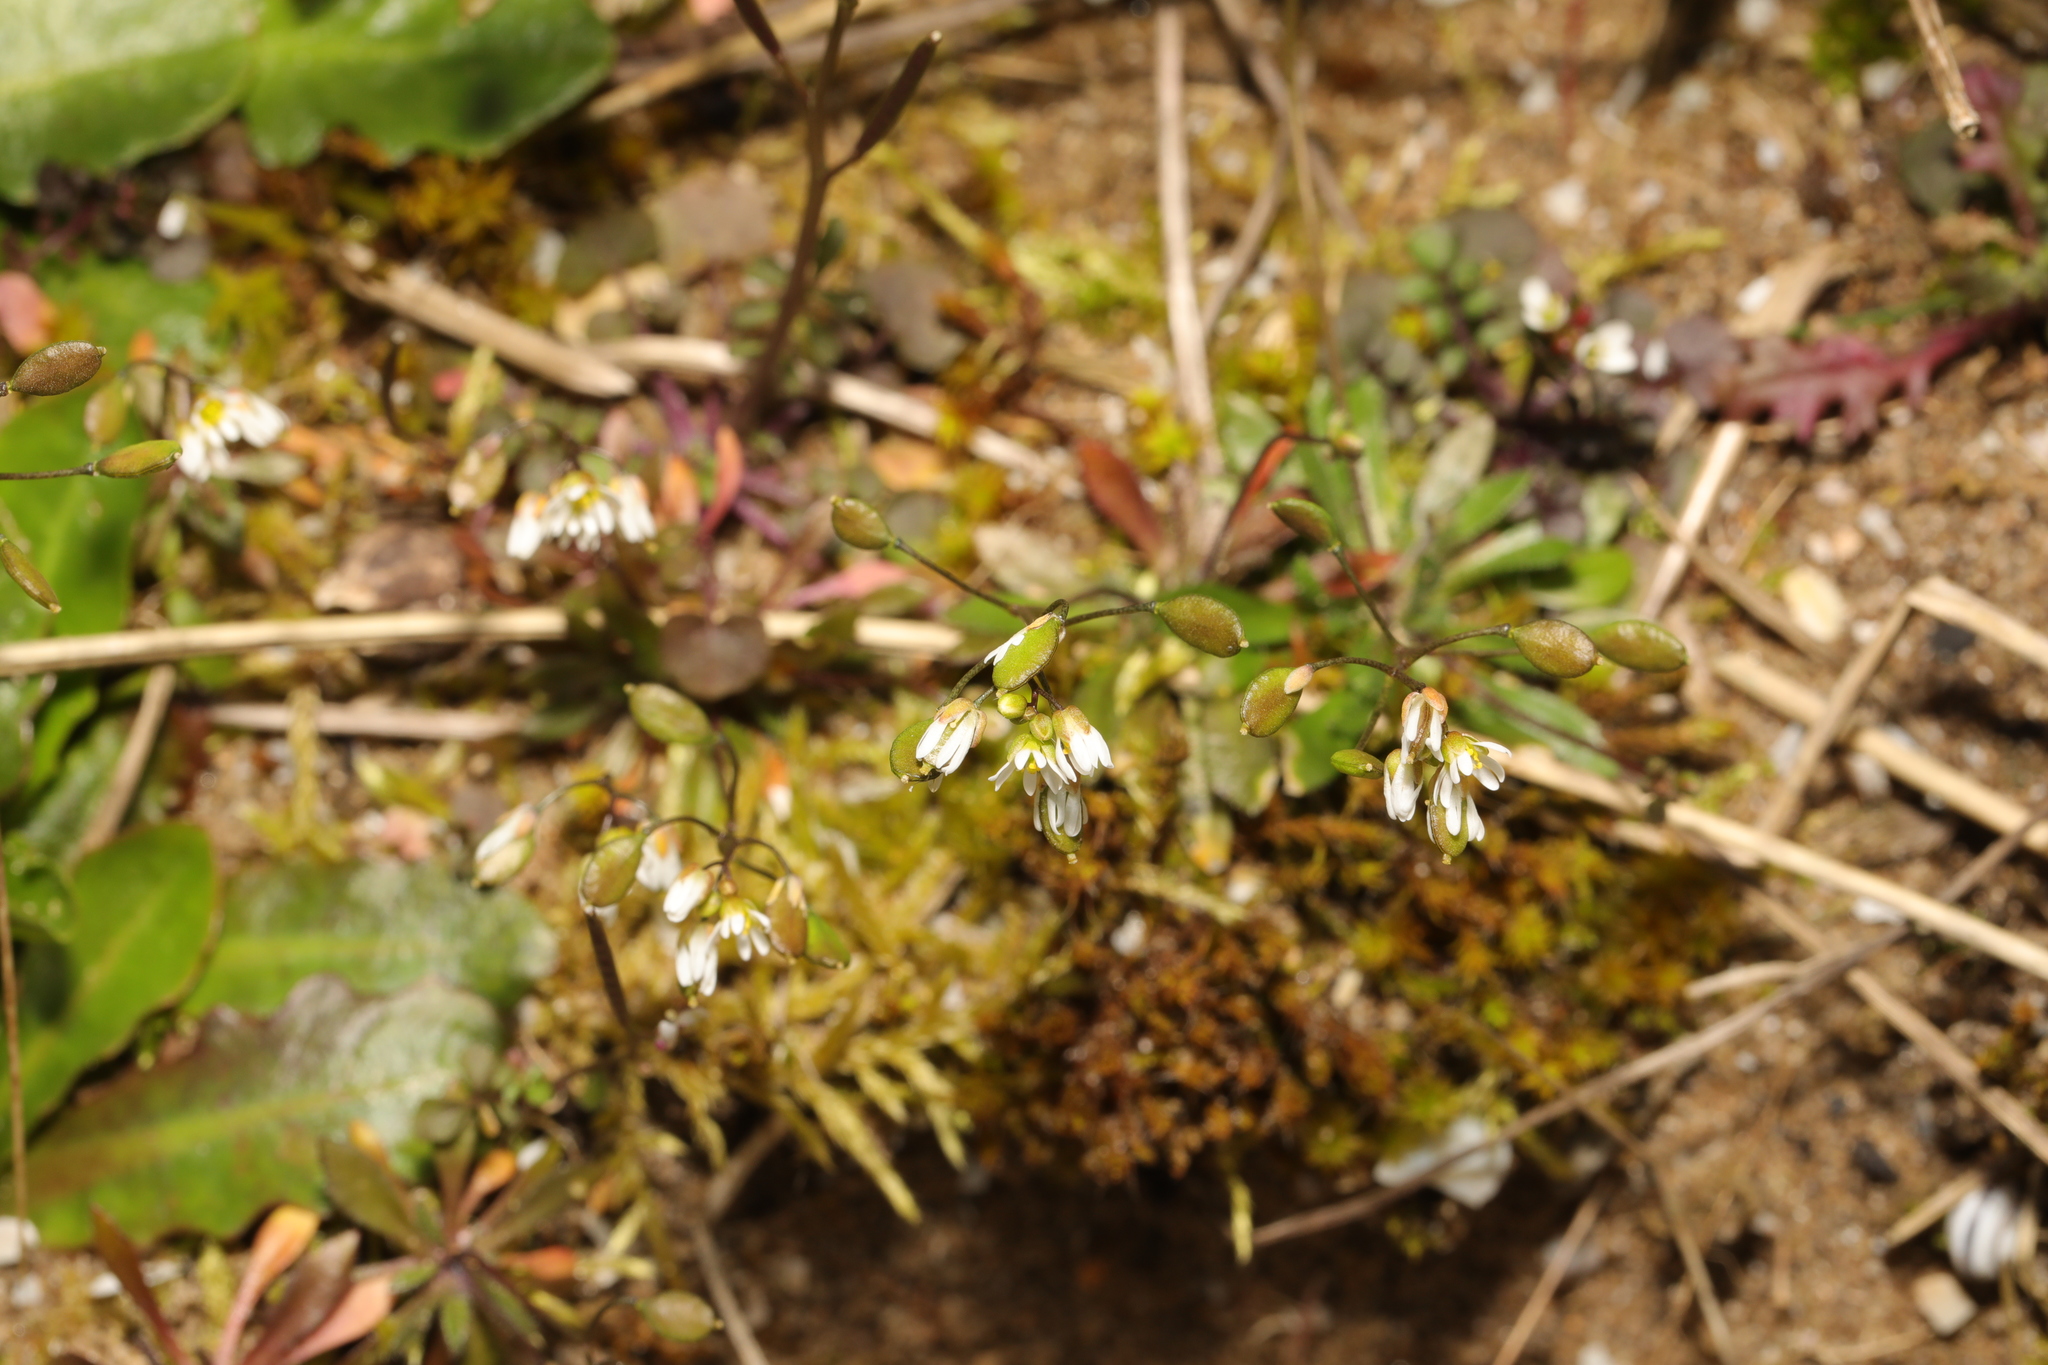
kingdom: Plantae
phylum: Tracheophyta
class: Magnoliopsida
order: Brassicales
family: Brassicaceae
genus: Draba
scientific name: Draba verna
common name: Spring draba
